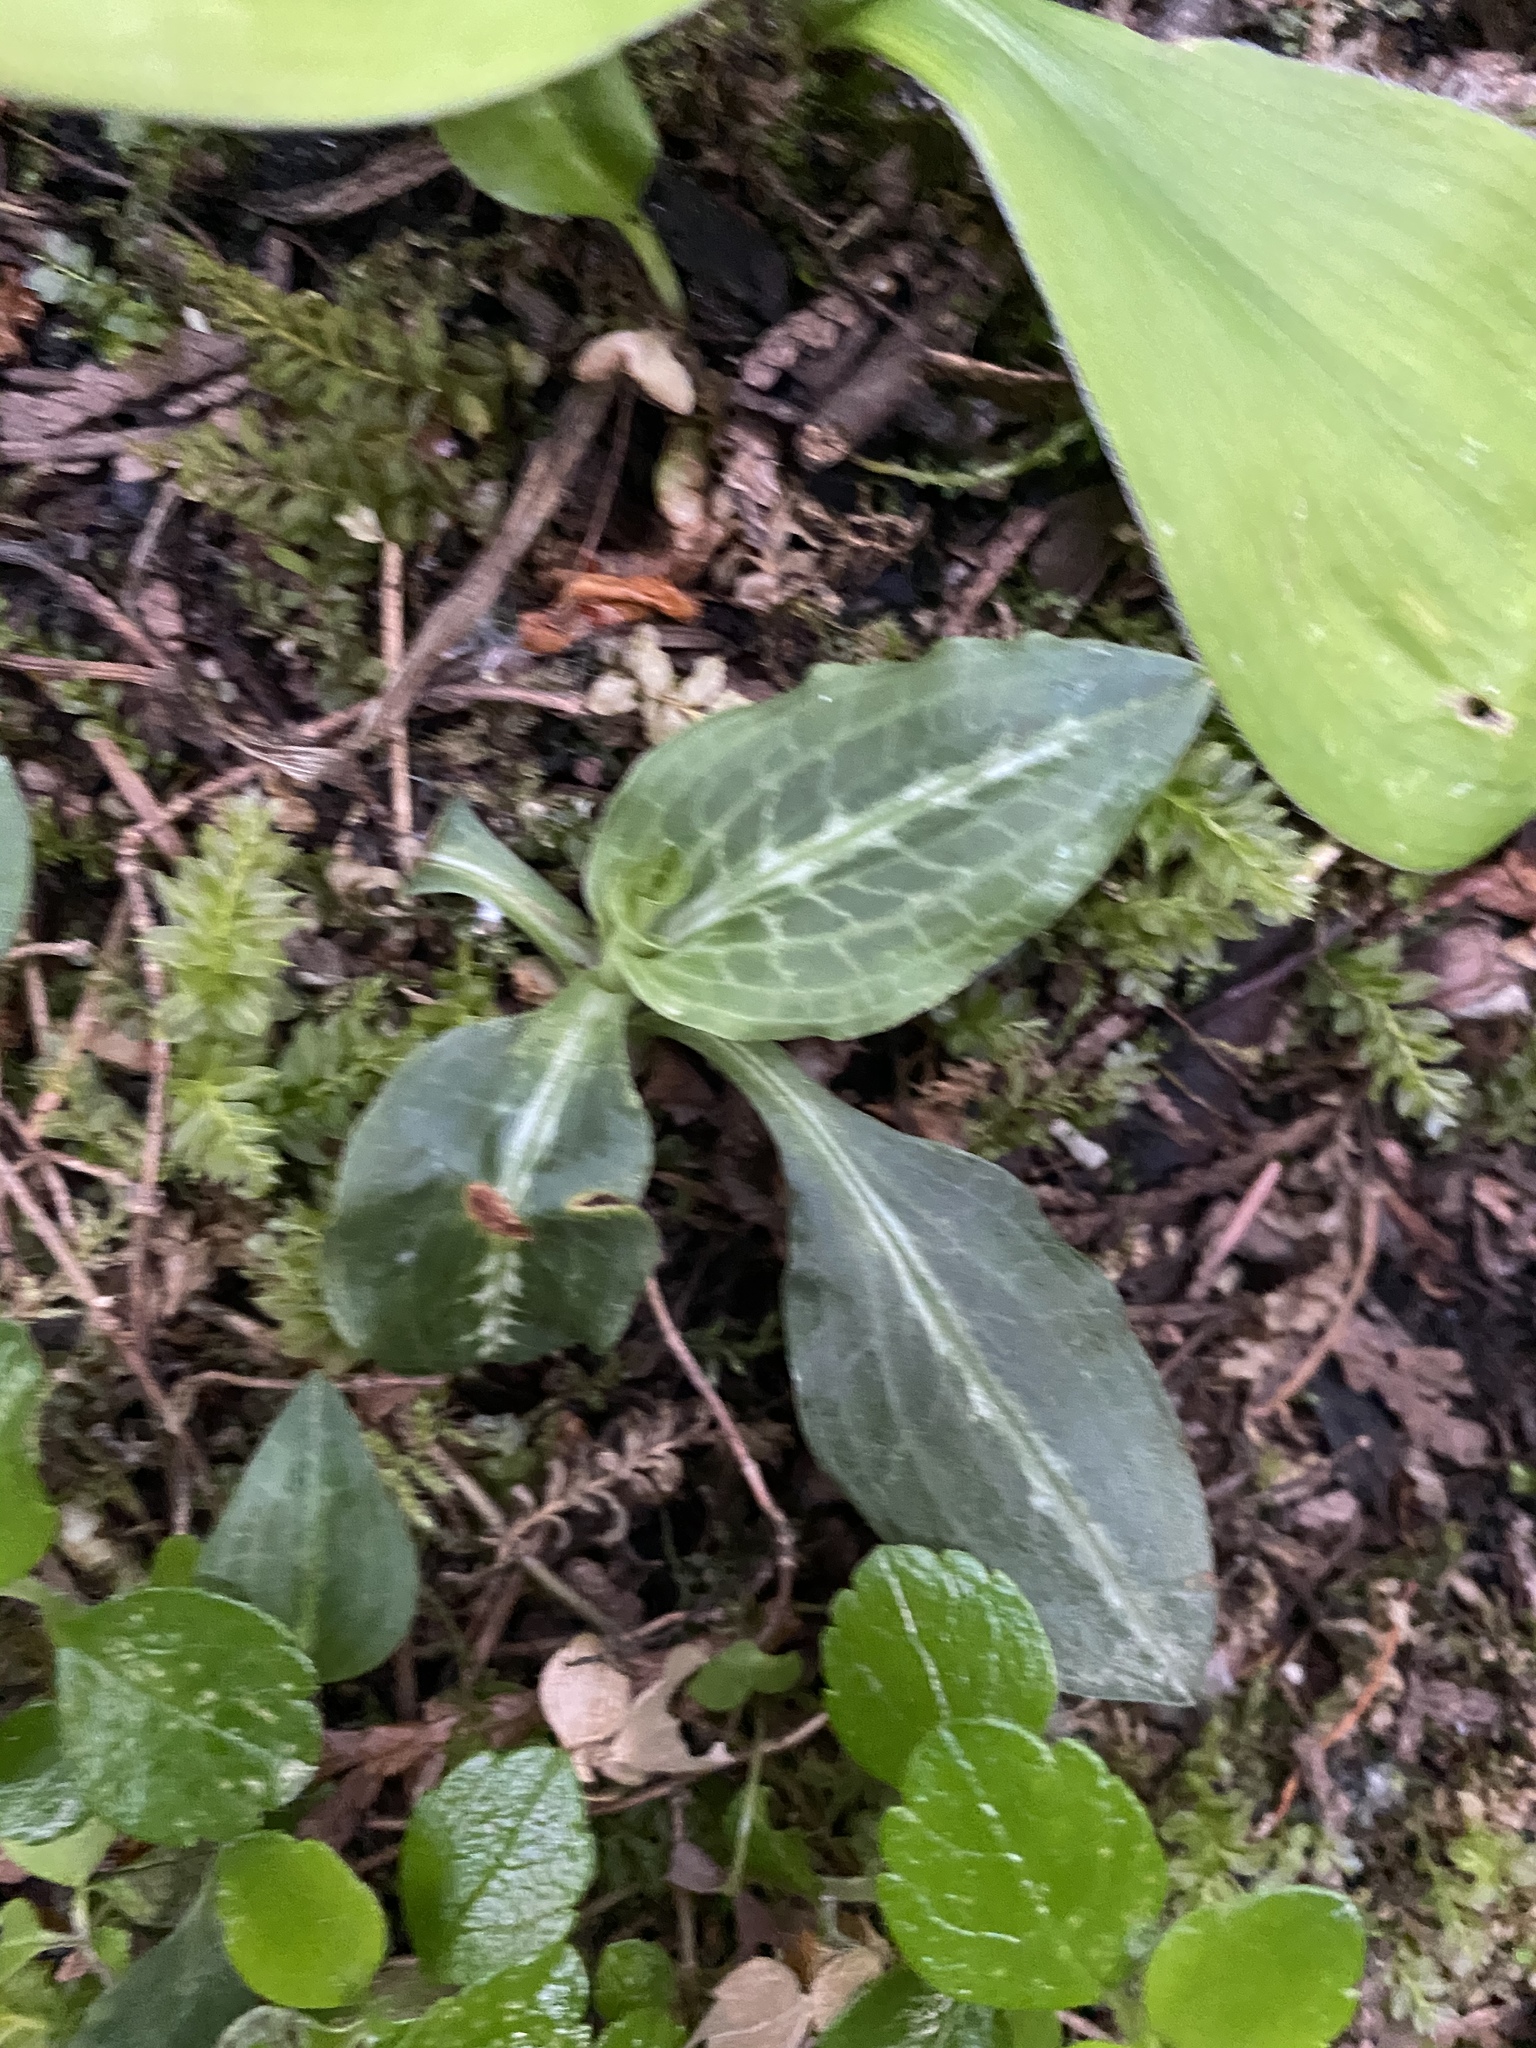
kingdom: Plantae
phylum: Tracheophyta
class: Liliopsida
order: Asparagales
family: Orchidaceae
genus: Goodyera
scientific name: Goodyera oblongifolia
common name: Giant rattlesnake-plantain
